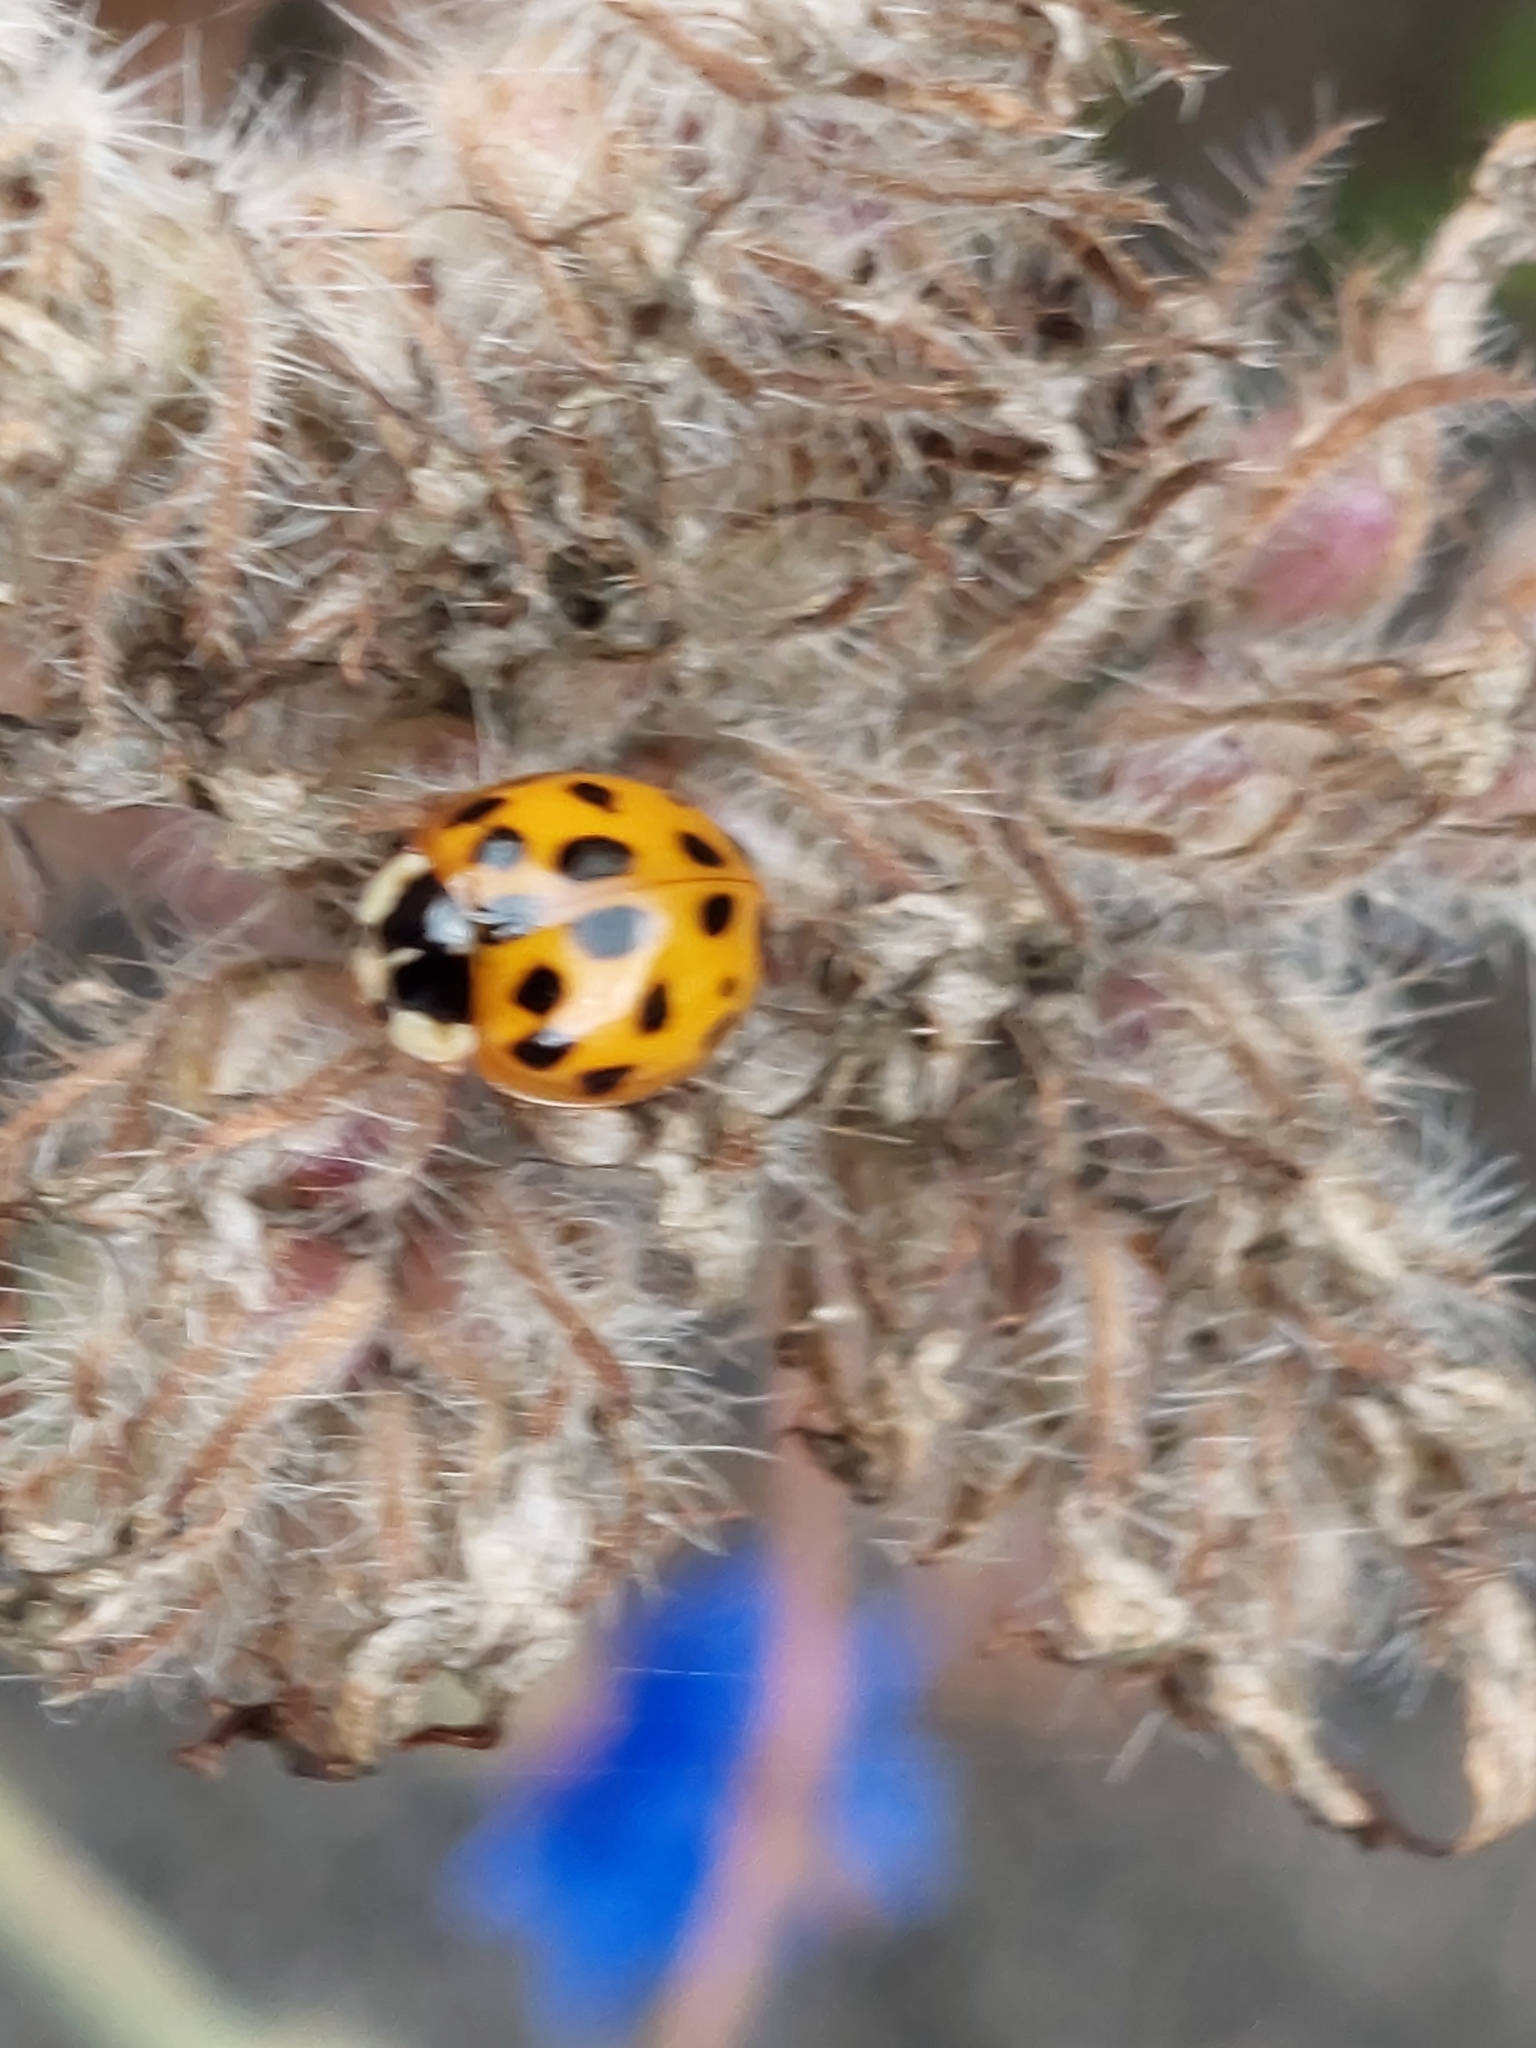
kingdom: Animalia
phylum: Arthropoda
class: Insecta
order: Coleoptera
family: Coccinellidae
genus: Harmonia
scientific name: Harmonia axyridis
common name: Harlequin ladybird
